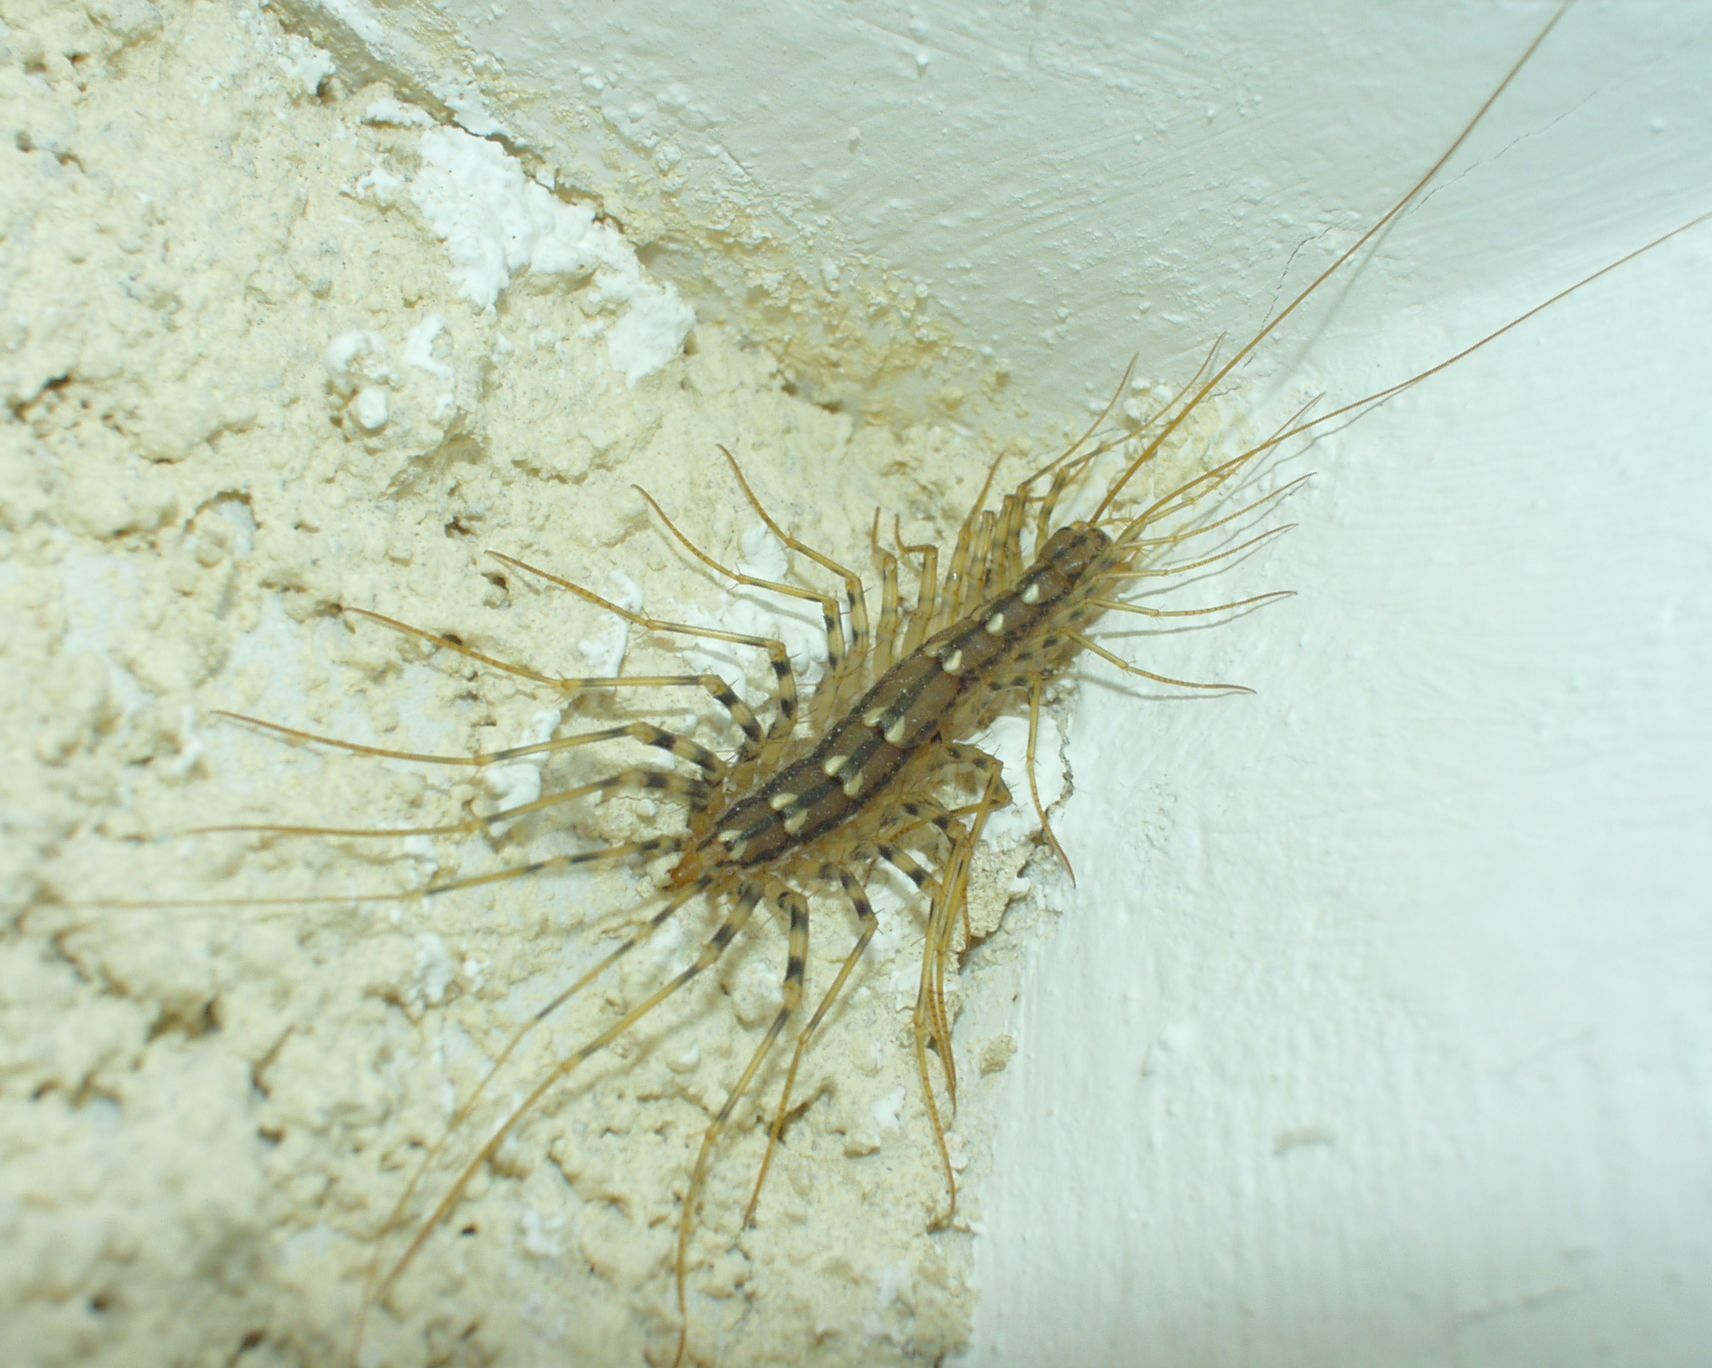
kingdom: Animalia
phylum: Arthropoda
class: Chilopoda
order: Scutigeromorpha
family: Scutigeridae
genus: Scutigera
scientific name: Scutigera coleoptrata
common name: House centipede
